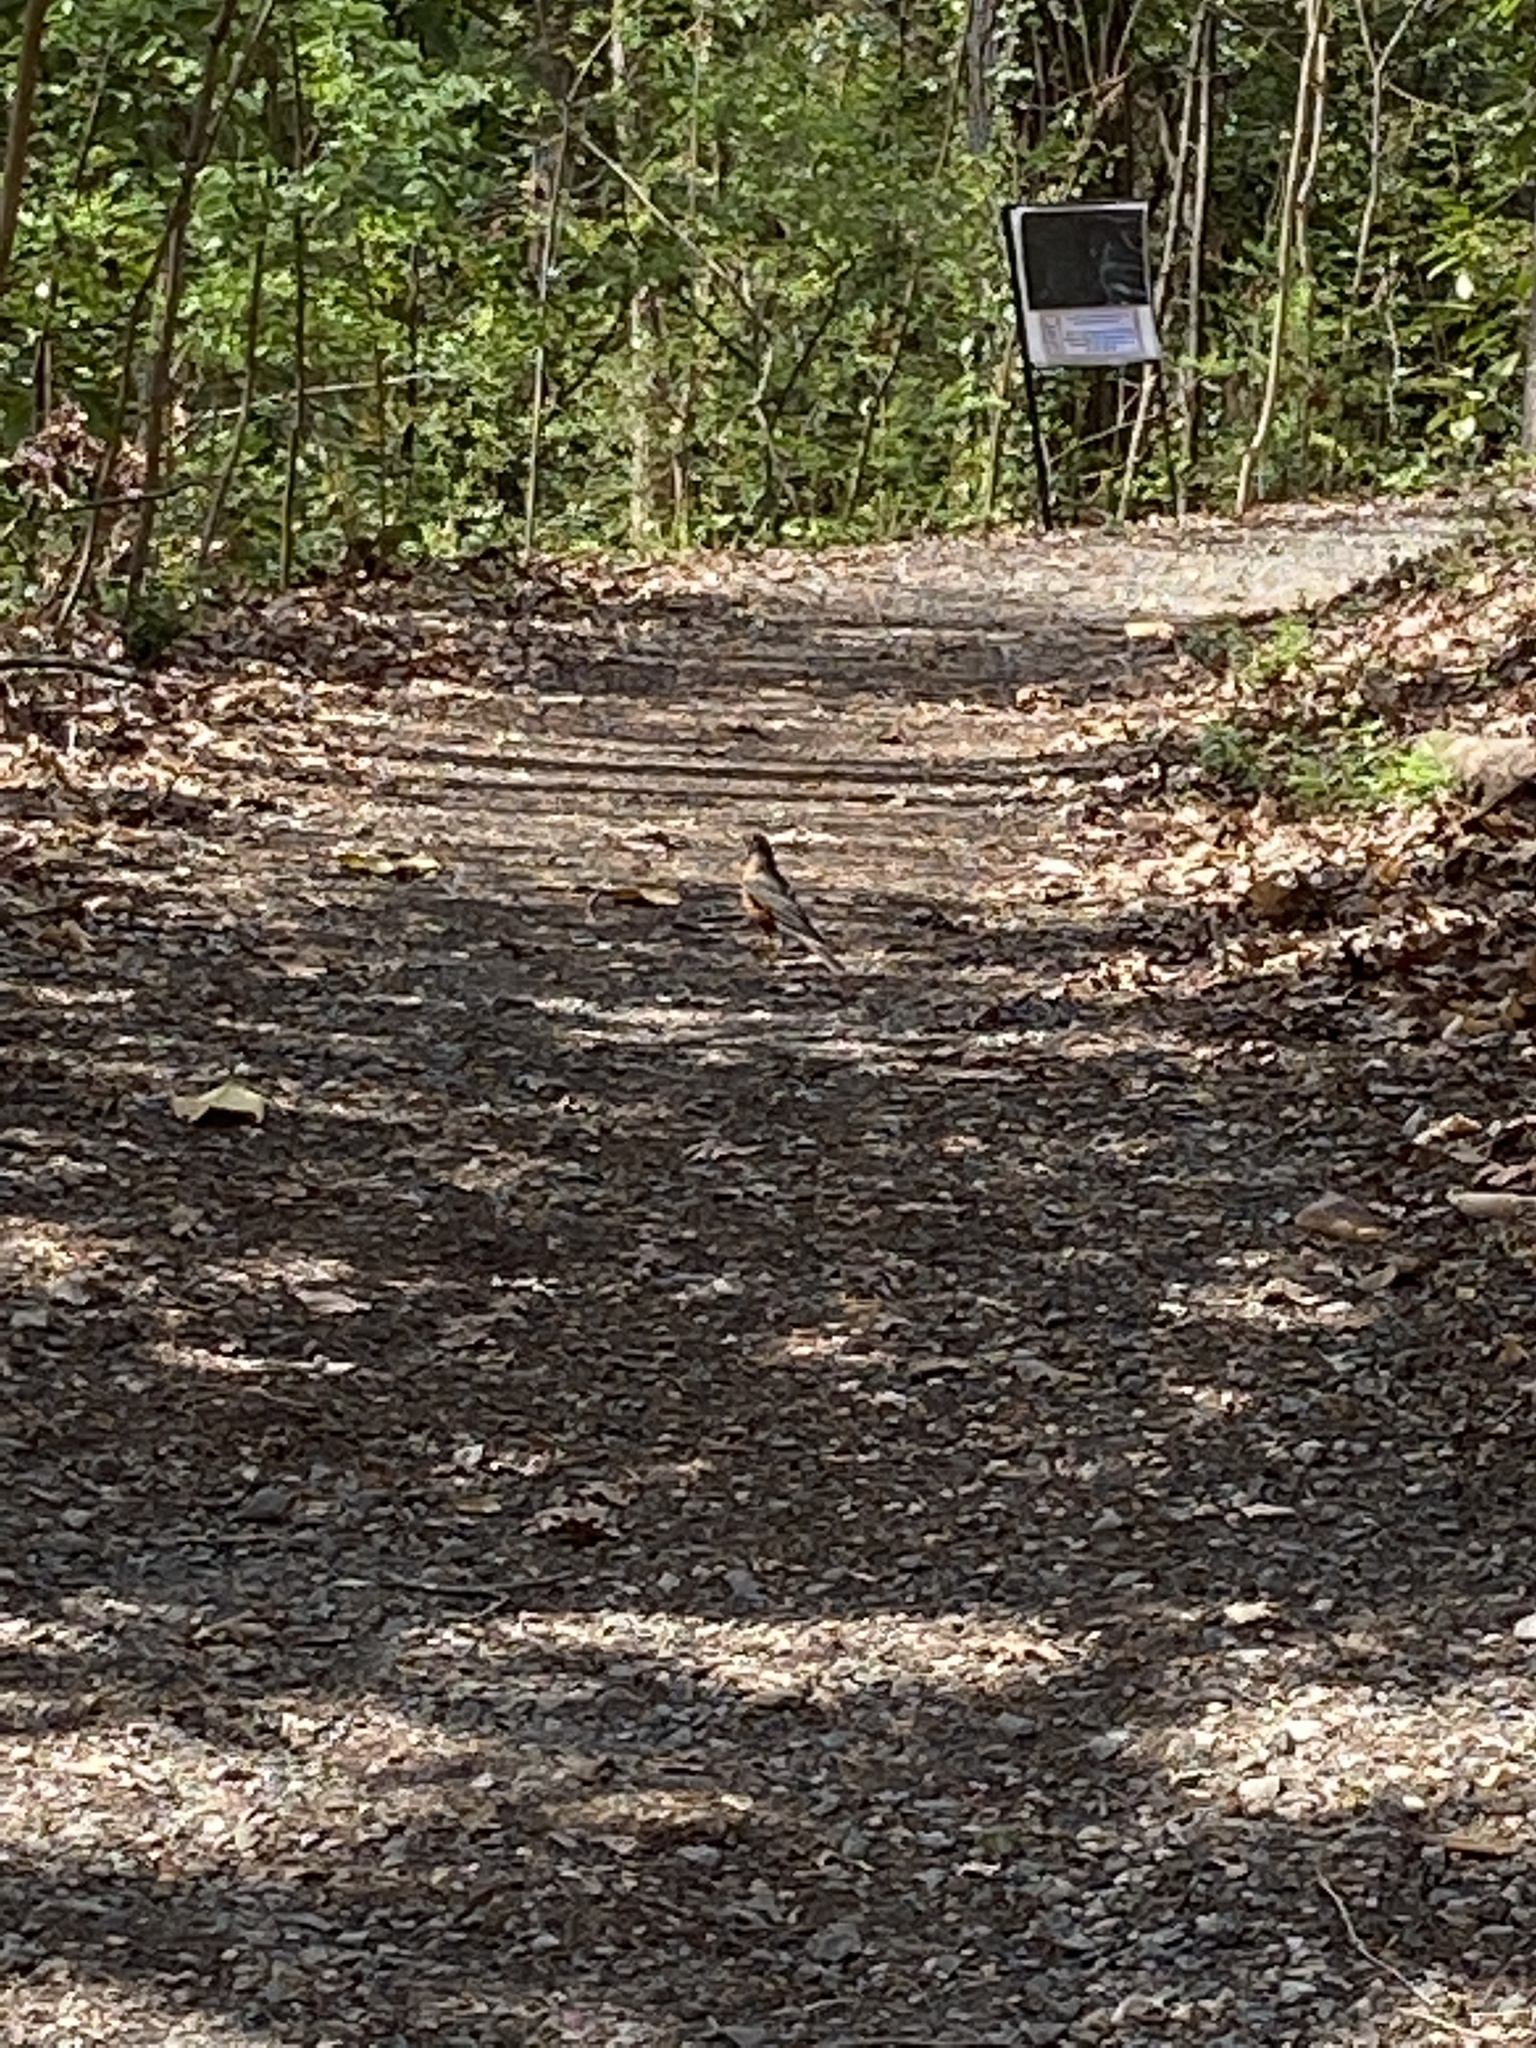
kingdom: Animalia
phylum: Chordata
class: Aves
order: Passeriformes
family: Turdidae
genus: Turdus
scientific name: Turdus migratorius
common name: American robin
